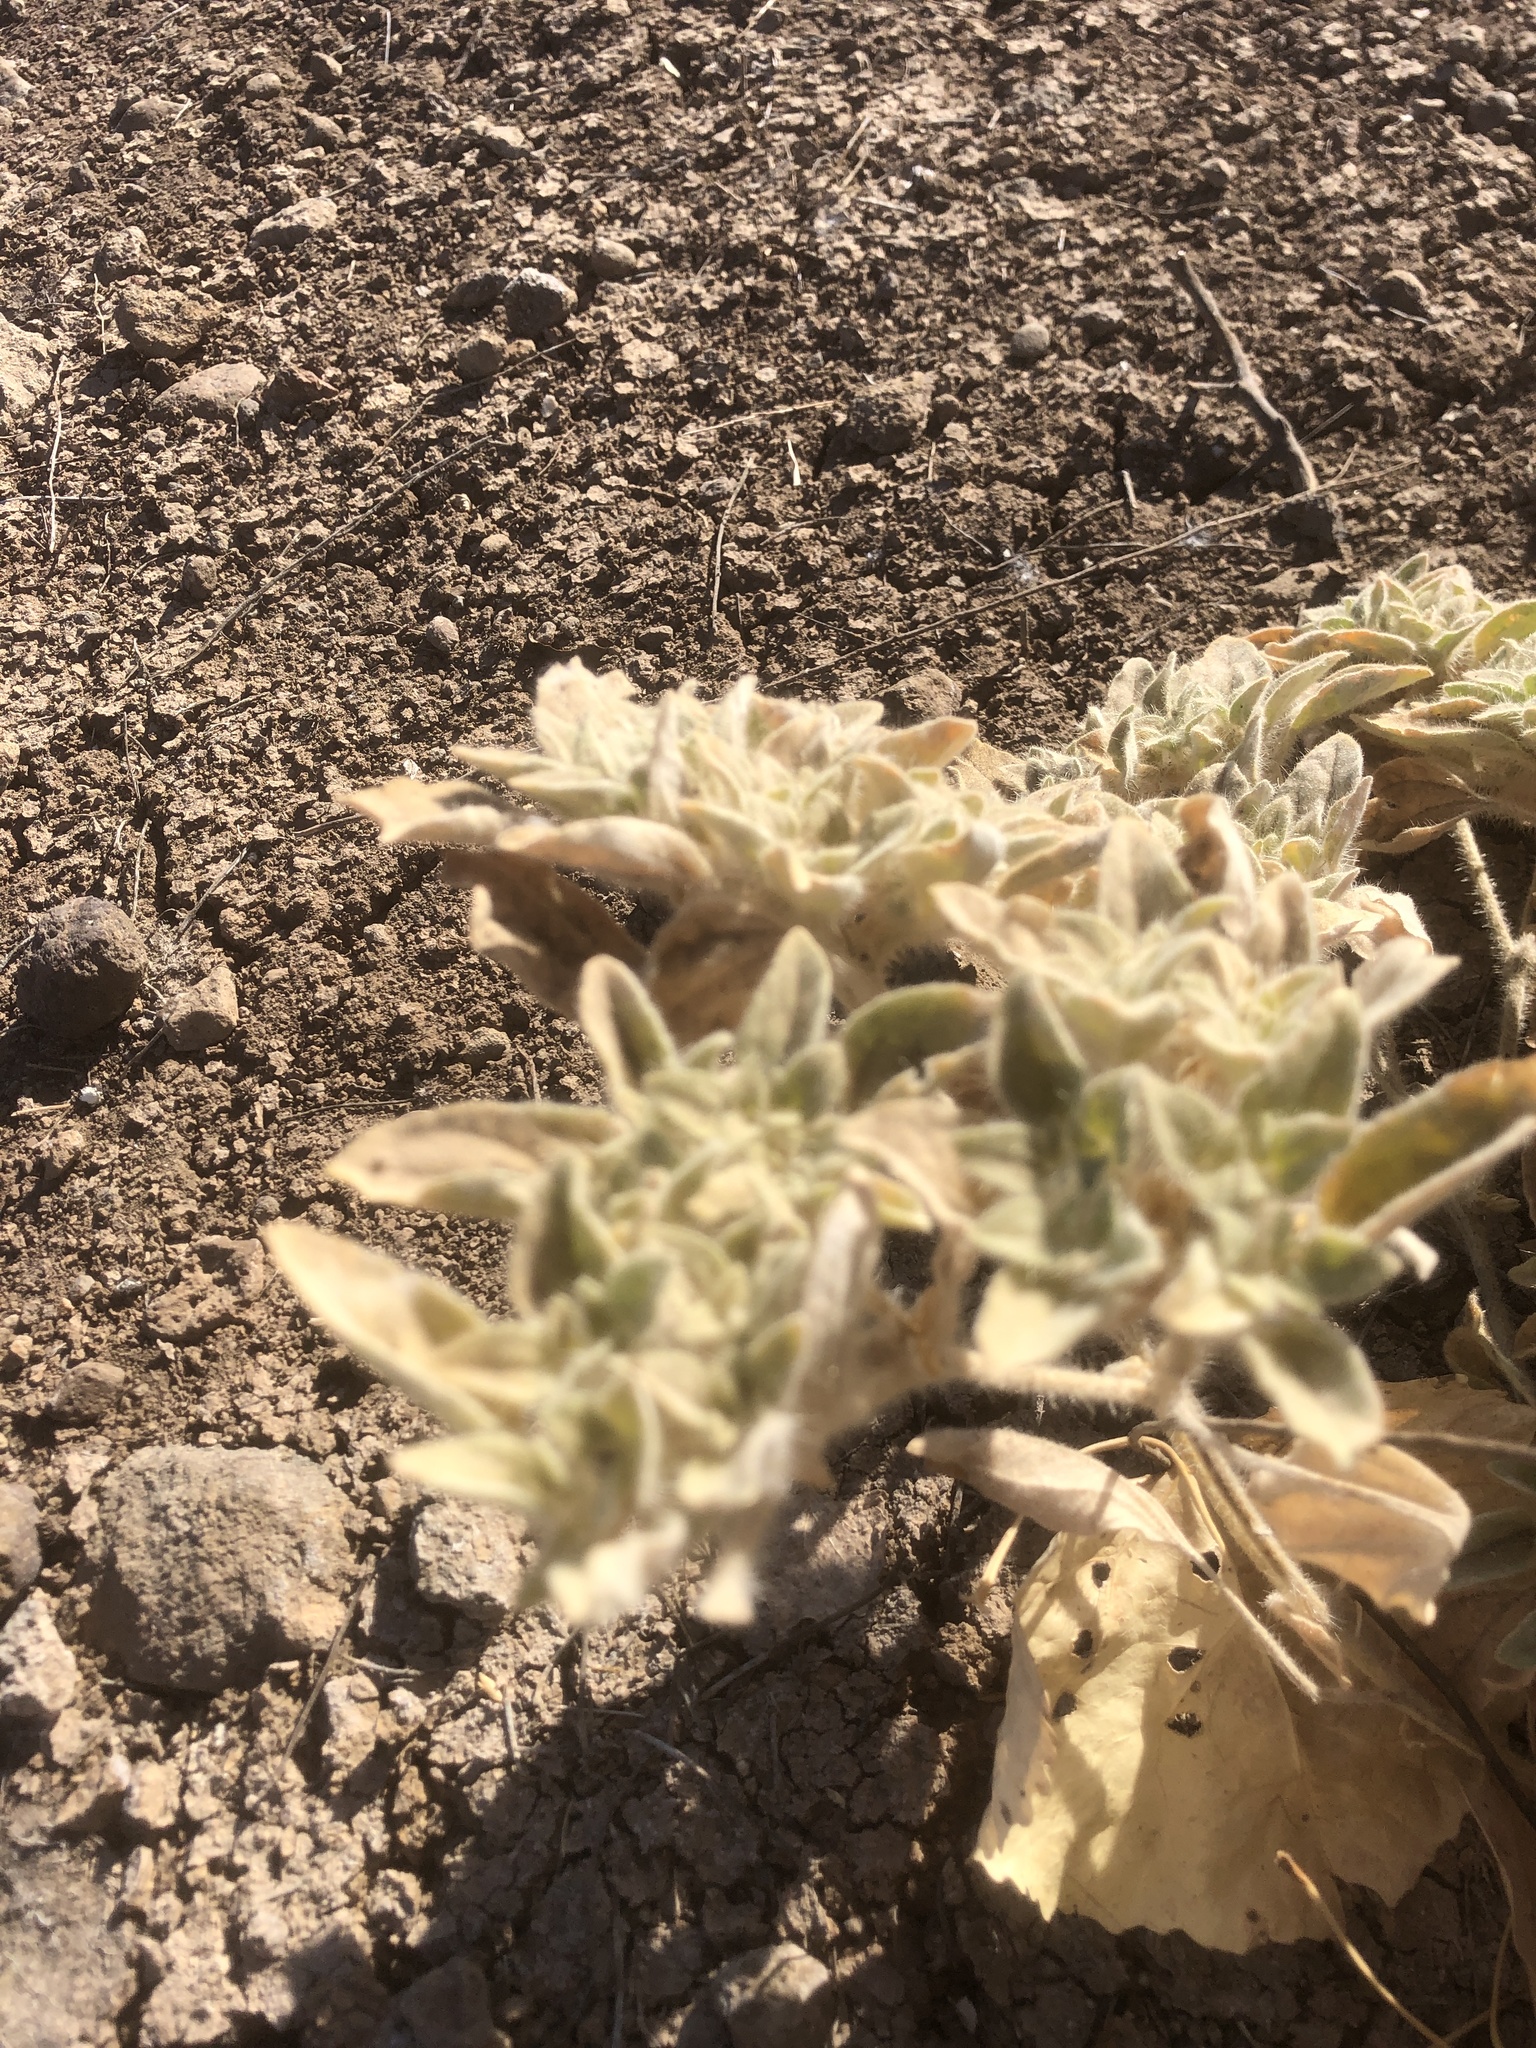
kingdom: Plantae
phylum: Tracheophyta
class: Magnoliopsida
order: Malpighiales
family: Euphorbiaceae
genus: Croton
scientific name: Croton setiger
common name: Dove weed
